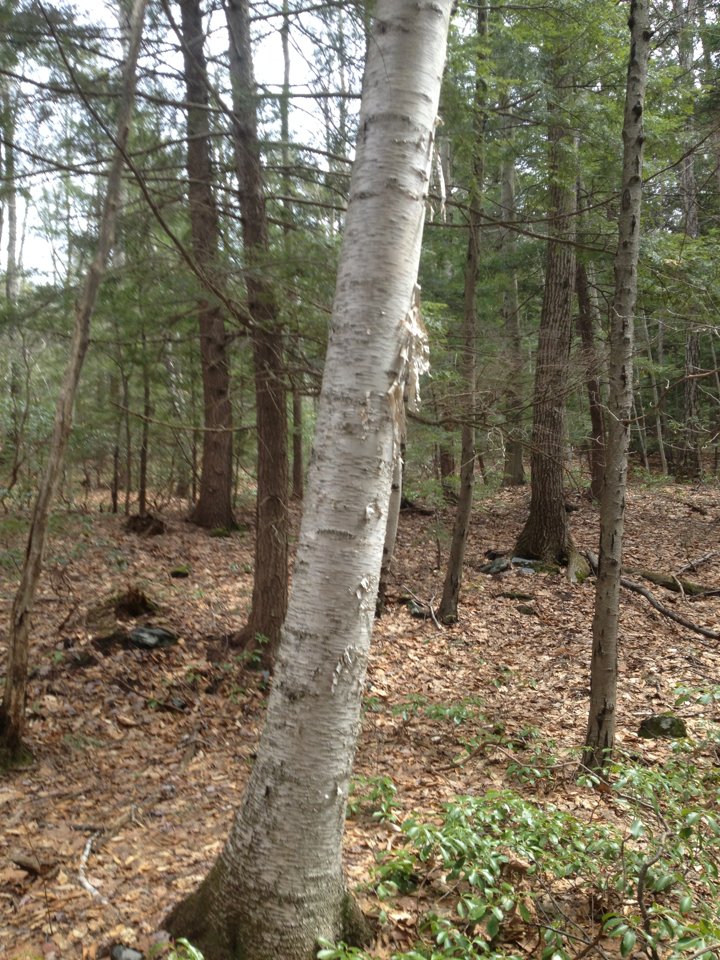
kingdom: Plantae
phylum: Tracheophyta
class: Magnoliopsida
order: Fagales
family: Betulaceae
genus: Betula
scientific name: Betula papyrifera
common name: Paper birch
